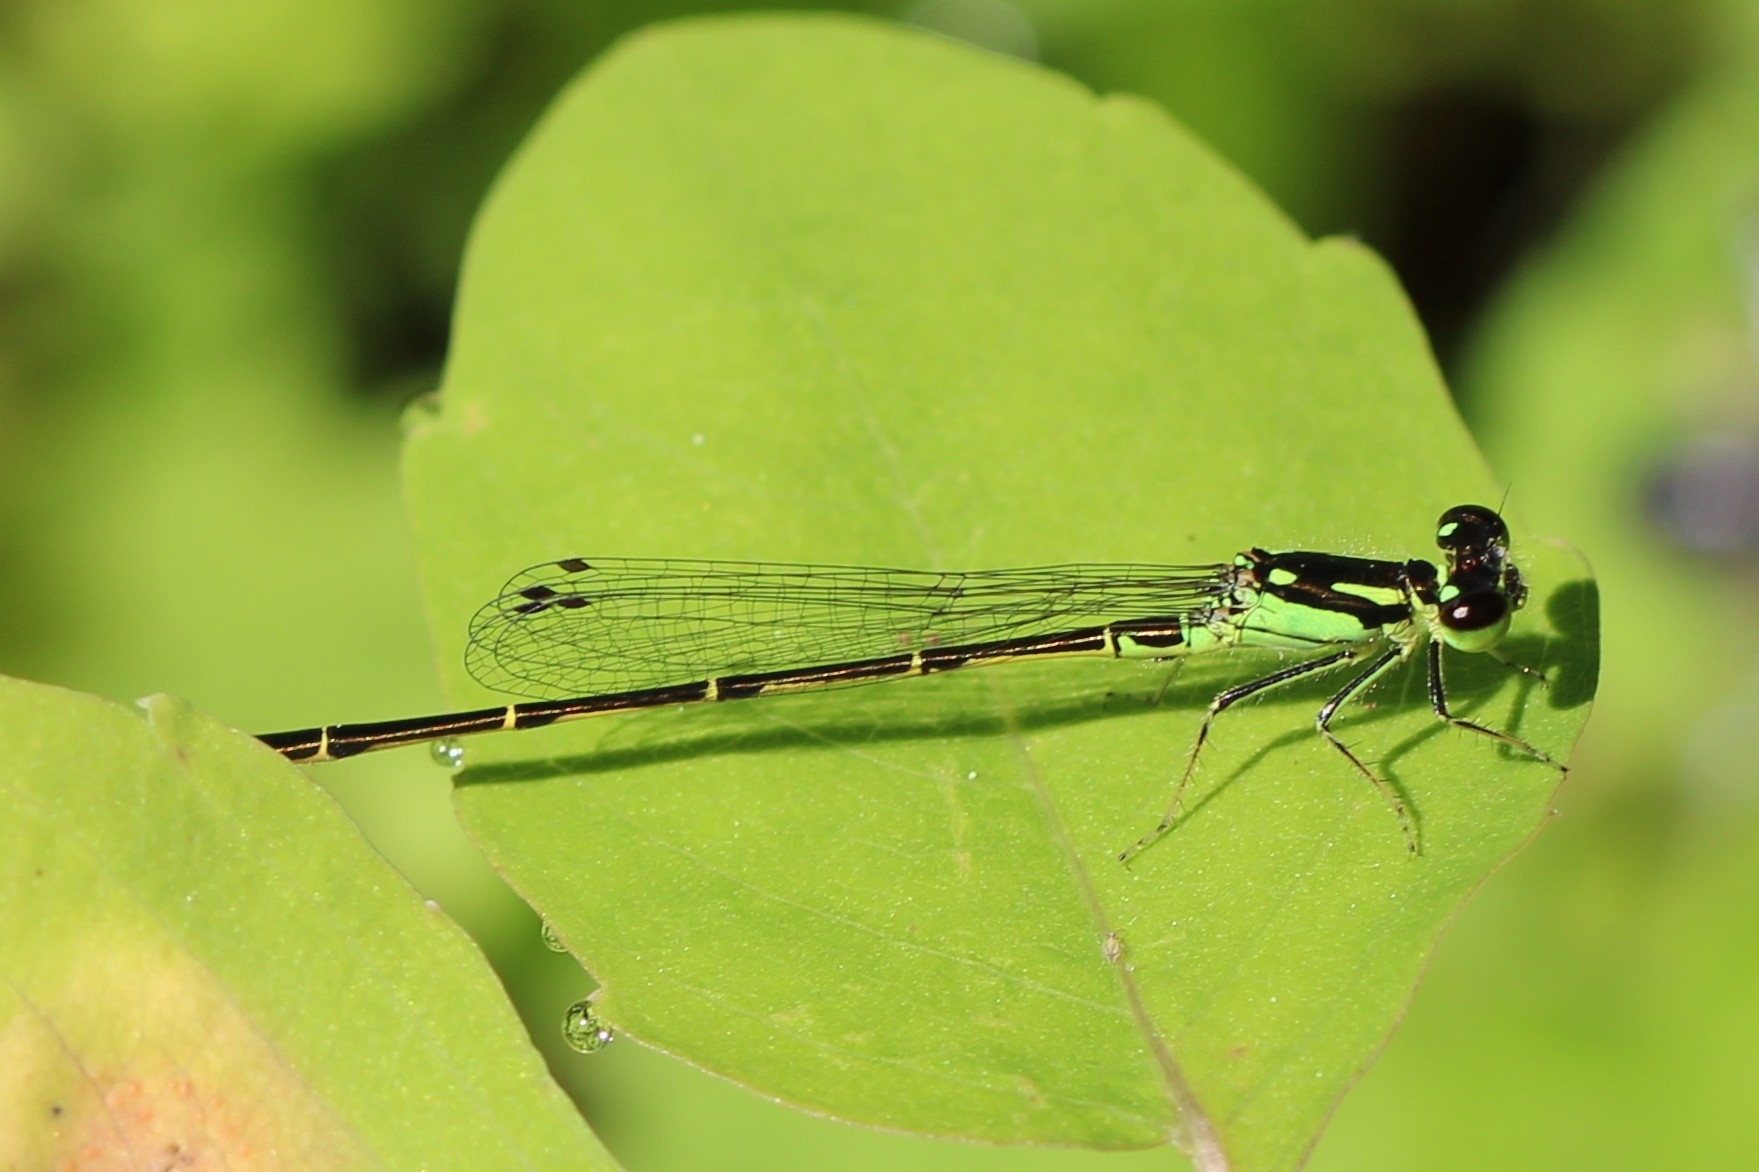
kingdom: Animalia
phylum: Arthropoda
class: Insecta
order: Odonata
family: Coenagrionidae
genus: Ischnura
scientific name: Ischnura posita
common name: Fragile forktail
